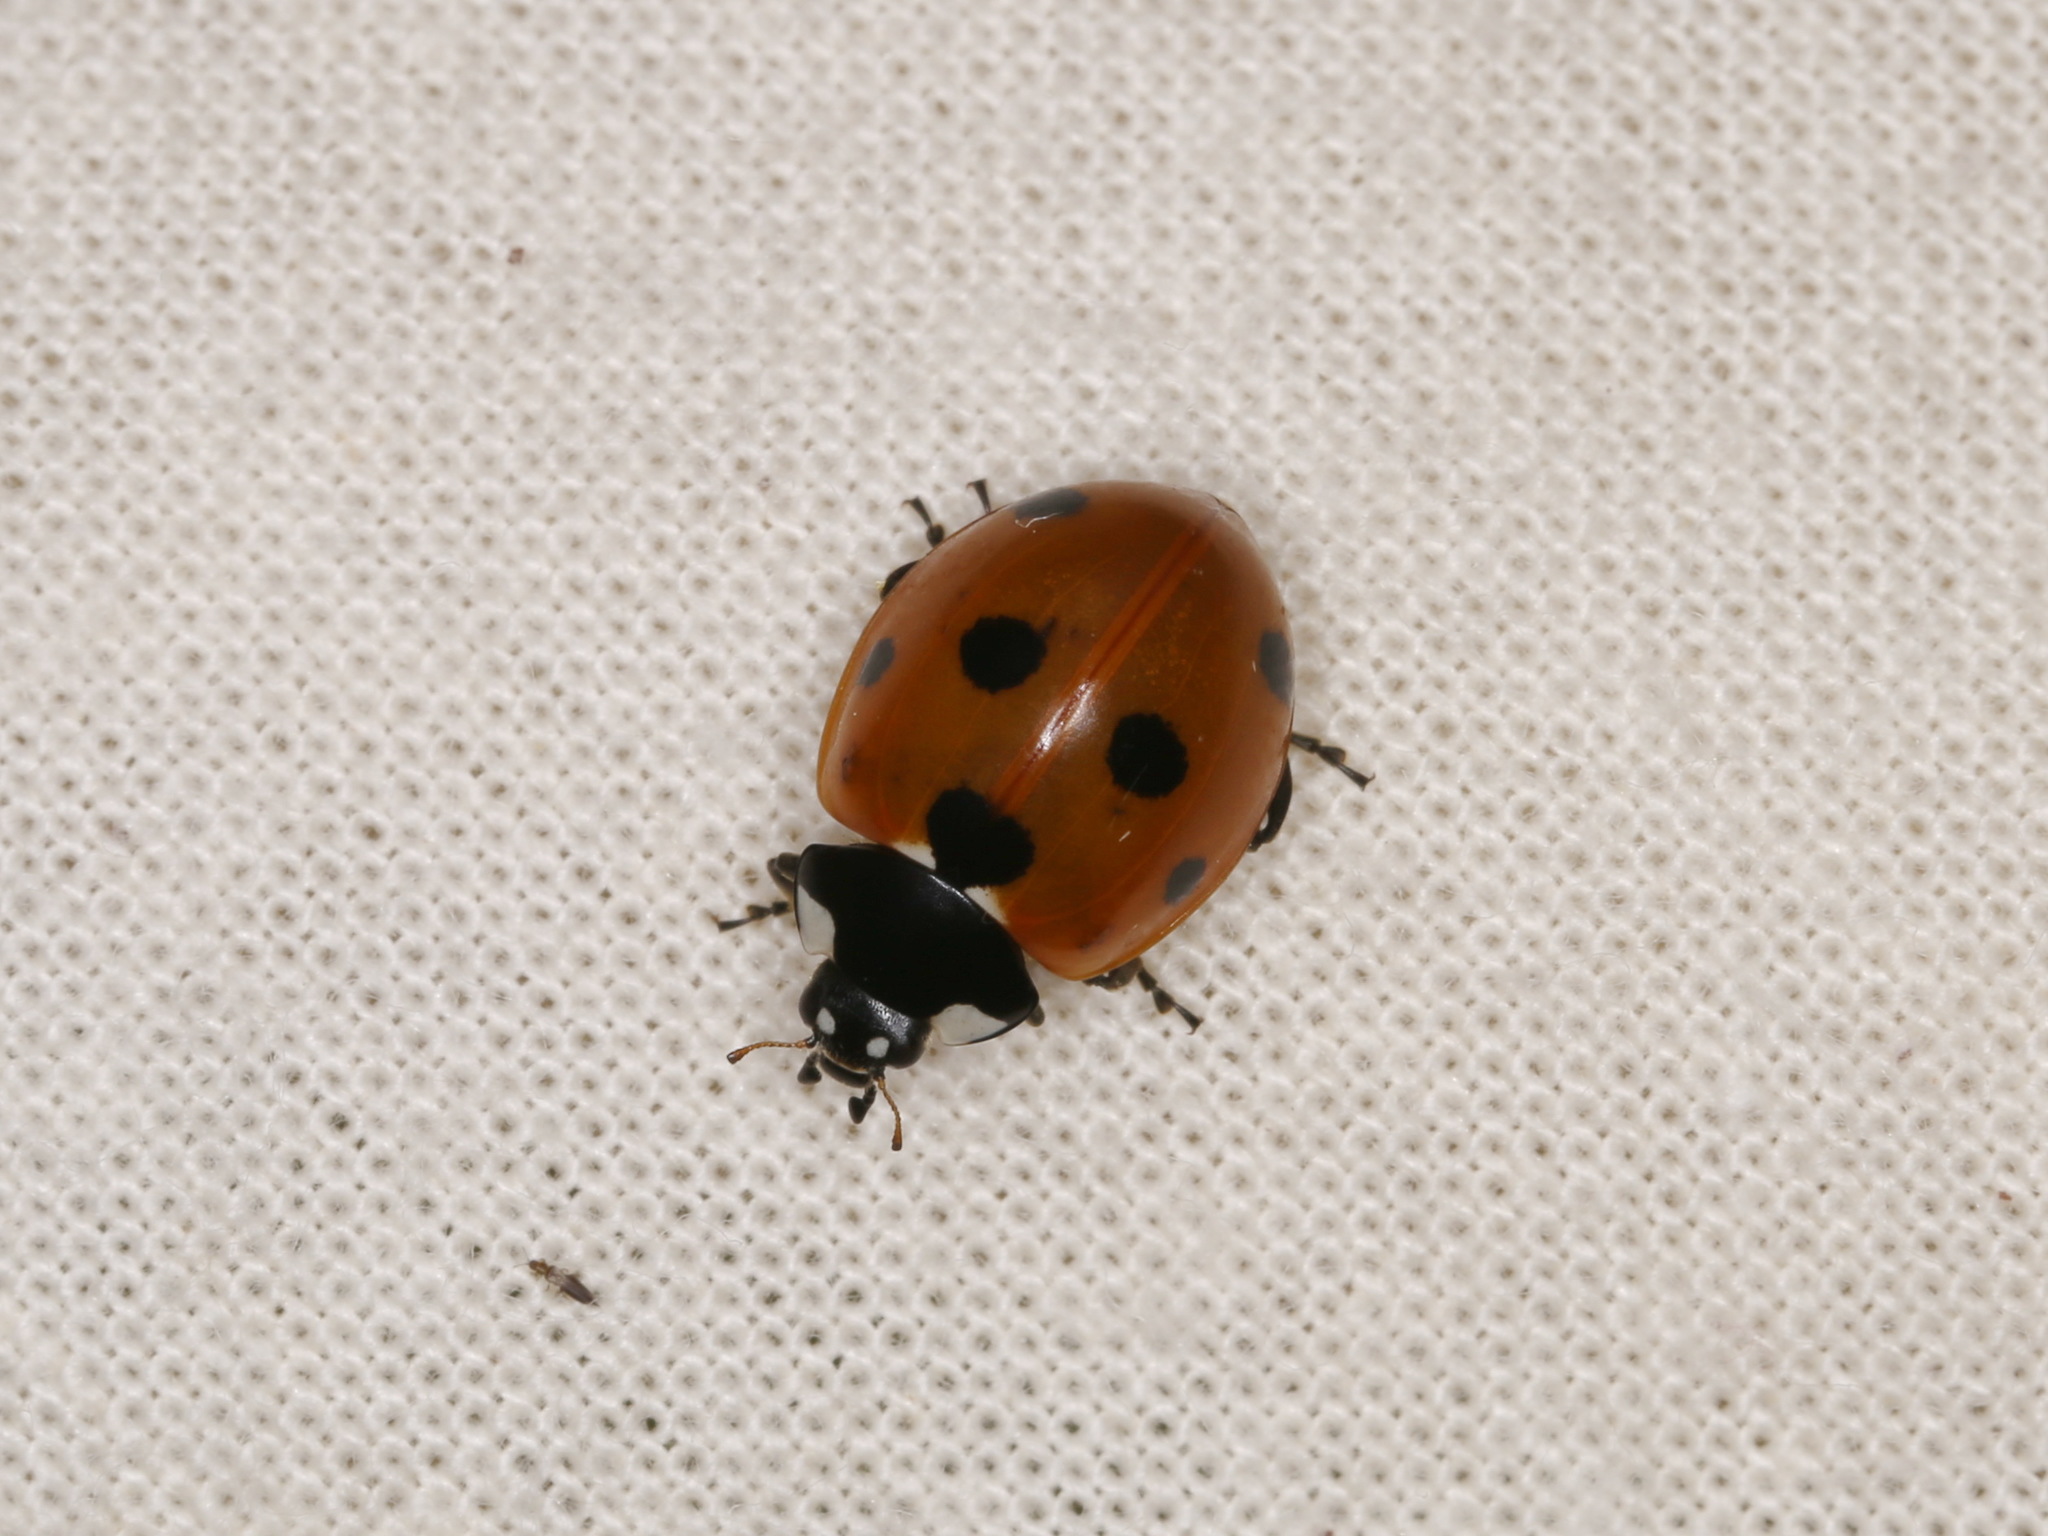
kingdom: Animalia
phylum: Arthropoda
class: Insecta
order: Coleoptera
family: Coccinellidae
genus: Coccinella
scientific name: Coccinella septempunctata
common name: Sevenspotted lady beetle
